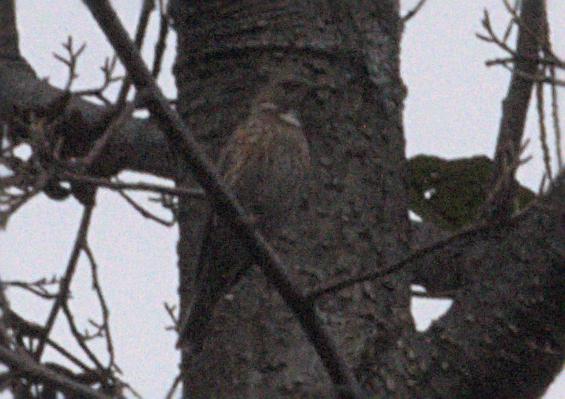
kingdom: Animalia
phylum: Chordata
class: Aves
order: Passeriformes
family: Prunellidae
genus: Prunella
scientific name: Prunella himalayana
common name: Altai accentor
